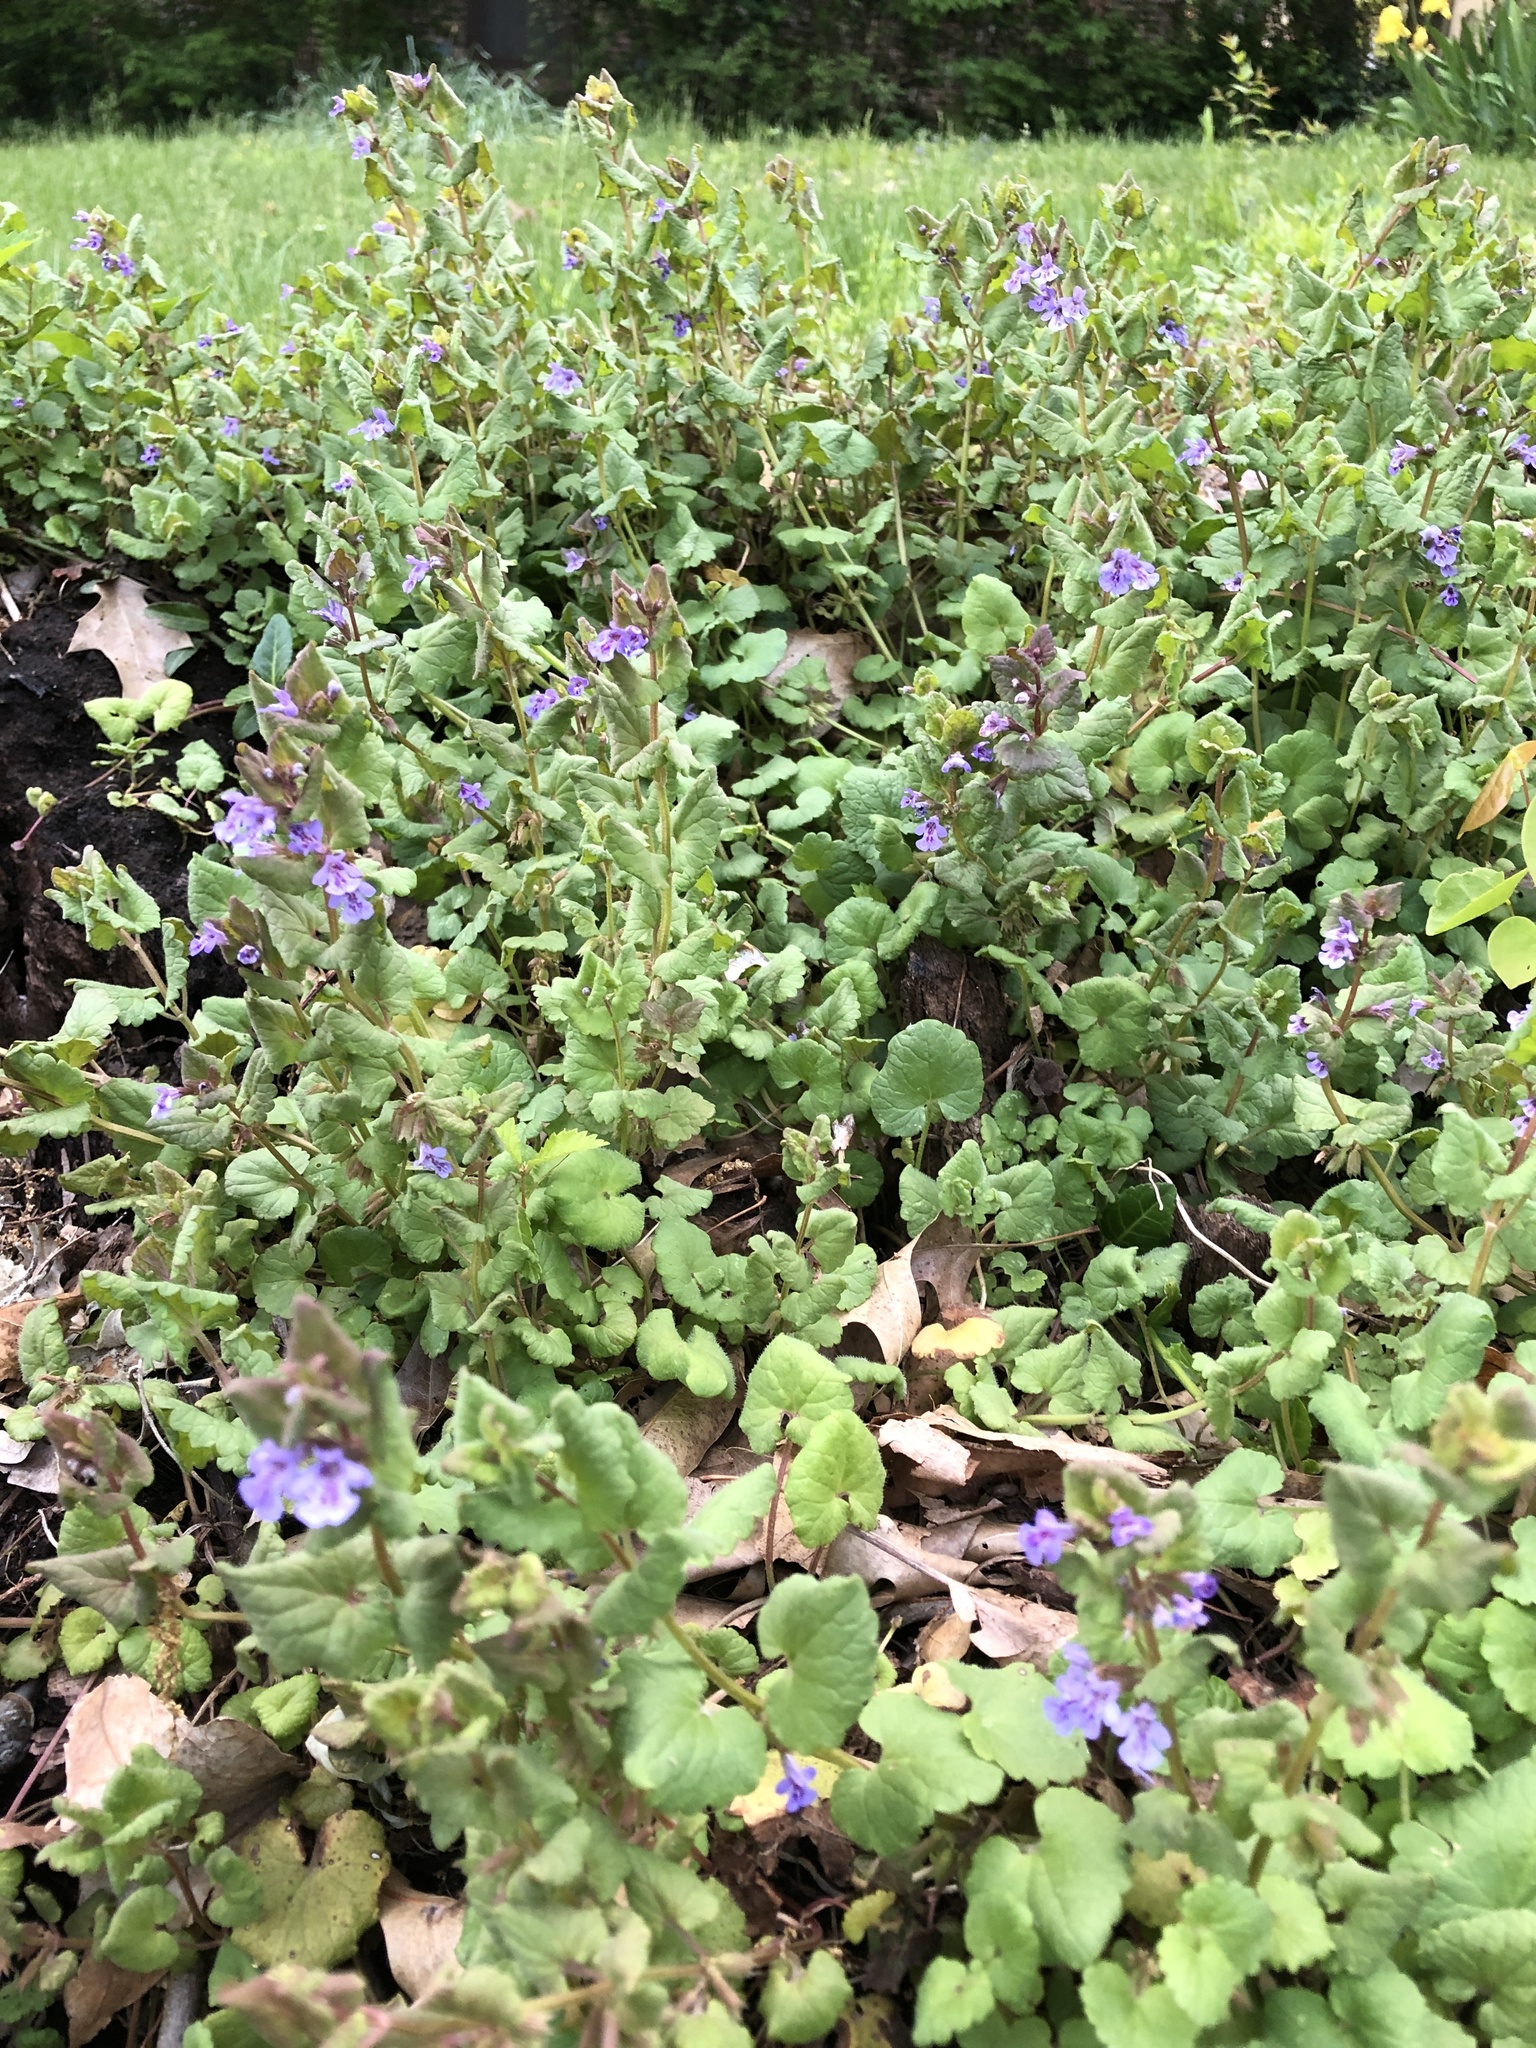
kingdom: Plantae
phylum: Tracheophyta
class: Magnoliopsida
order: Lamiales
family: Lamiaceae
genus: Glechoma
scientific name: Glechoma hederacea
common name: Ground ivy
